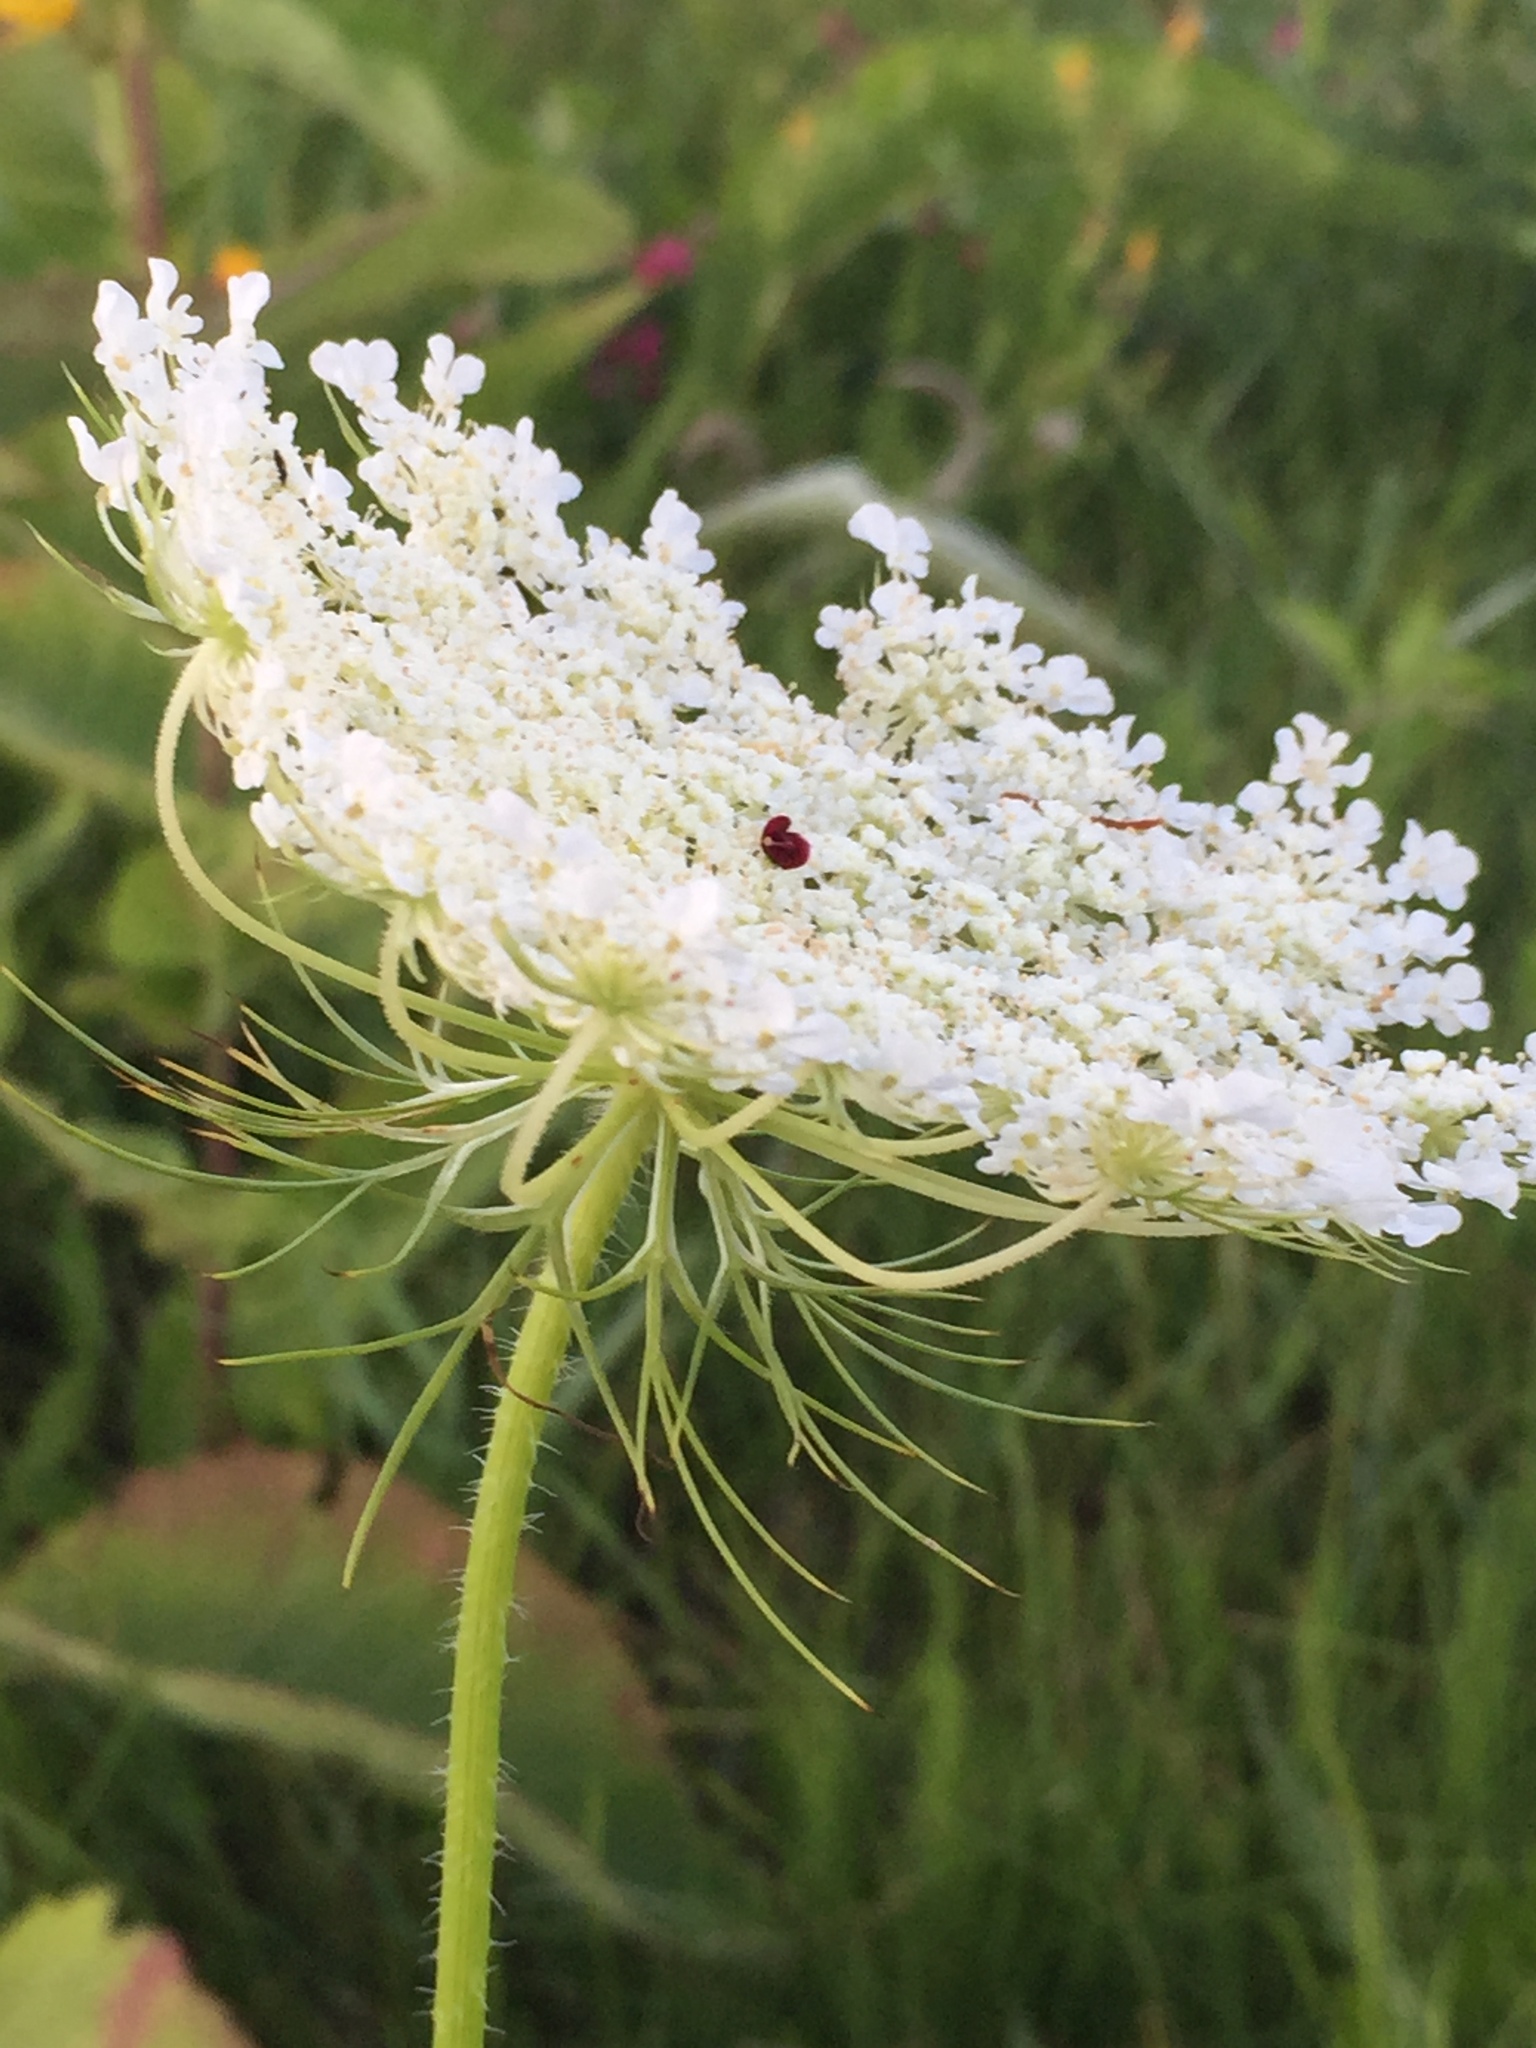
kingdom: Plantae
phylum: Tracheophyta
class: Magnoliopsida
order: Apiales
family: Apiaceae
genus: Daucus
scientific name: Daucus carota
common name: Wild carrot
